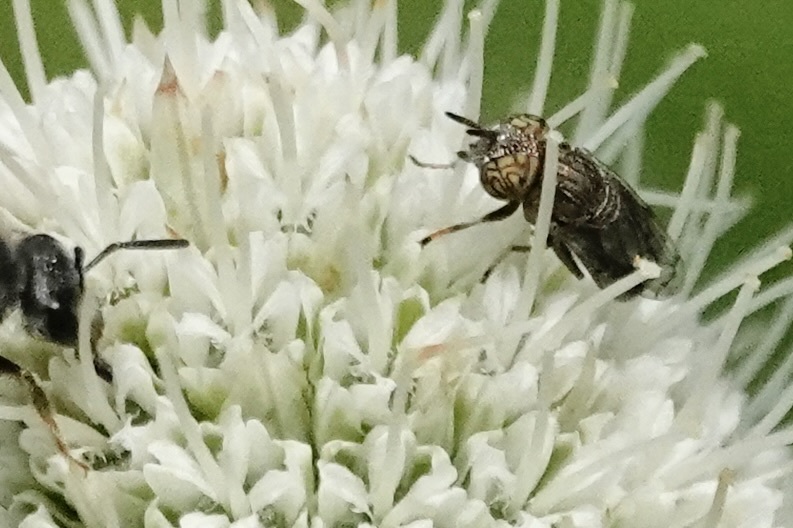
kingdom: Animalia
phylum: Arthropoda
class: Insecta
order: Diptera
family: Syrphidae
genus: Orthonevra
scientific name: Orthonevra nitida
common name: Wavy mucksucker
